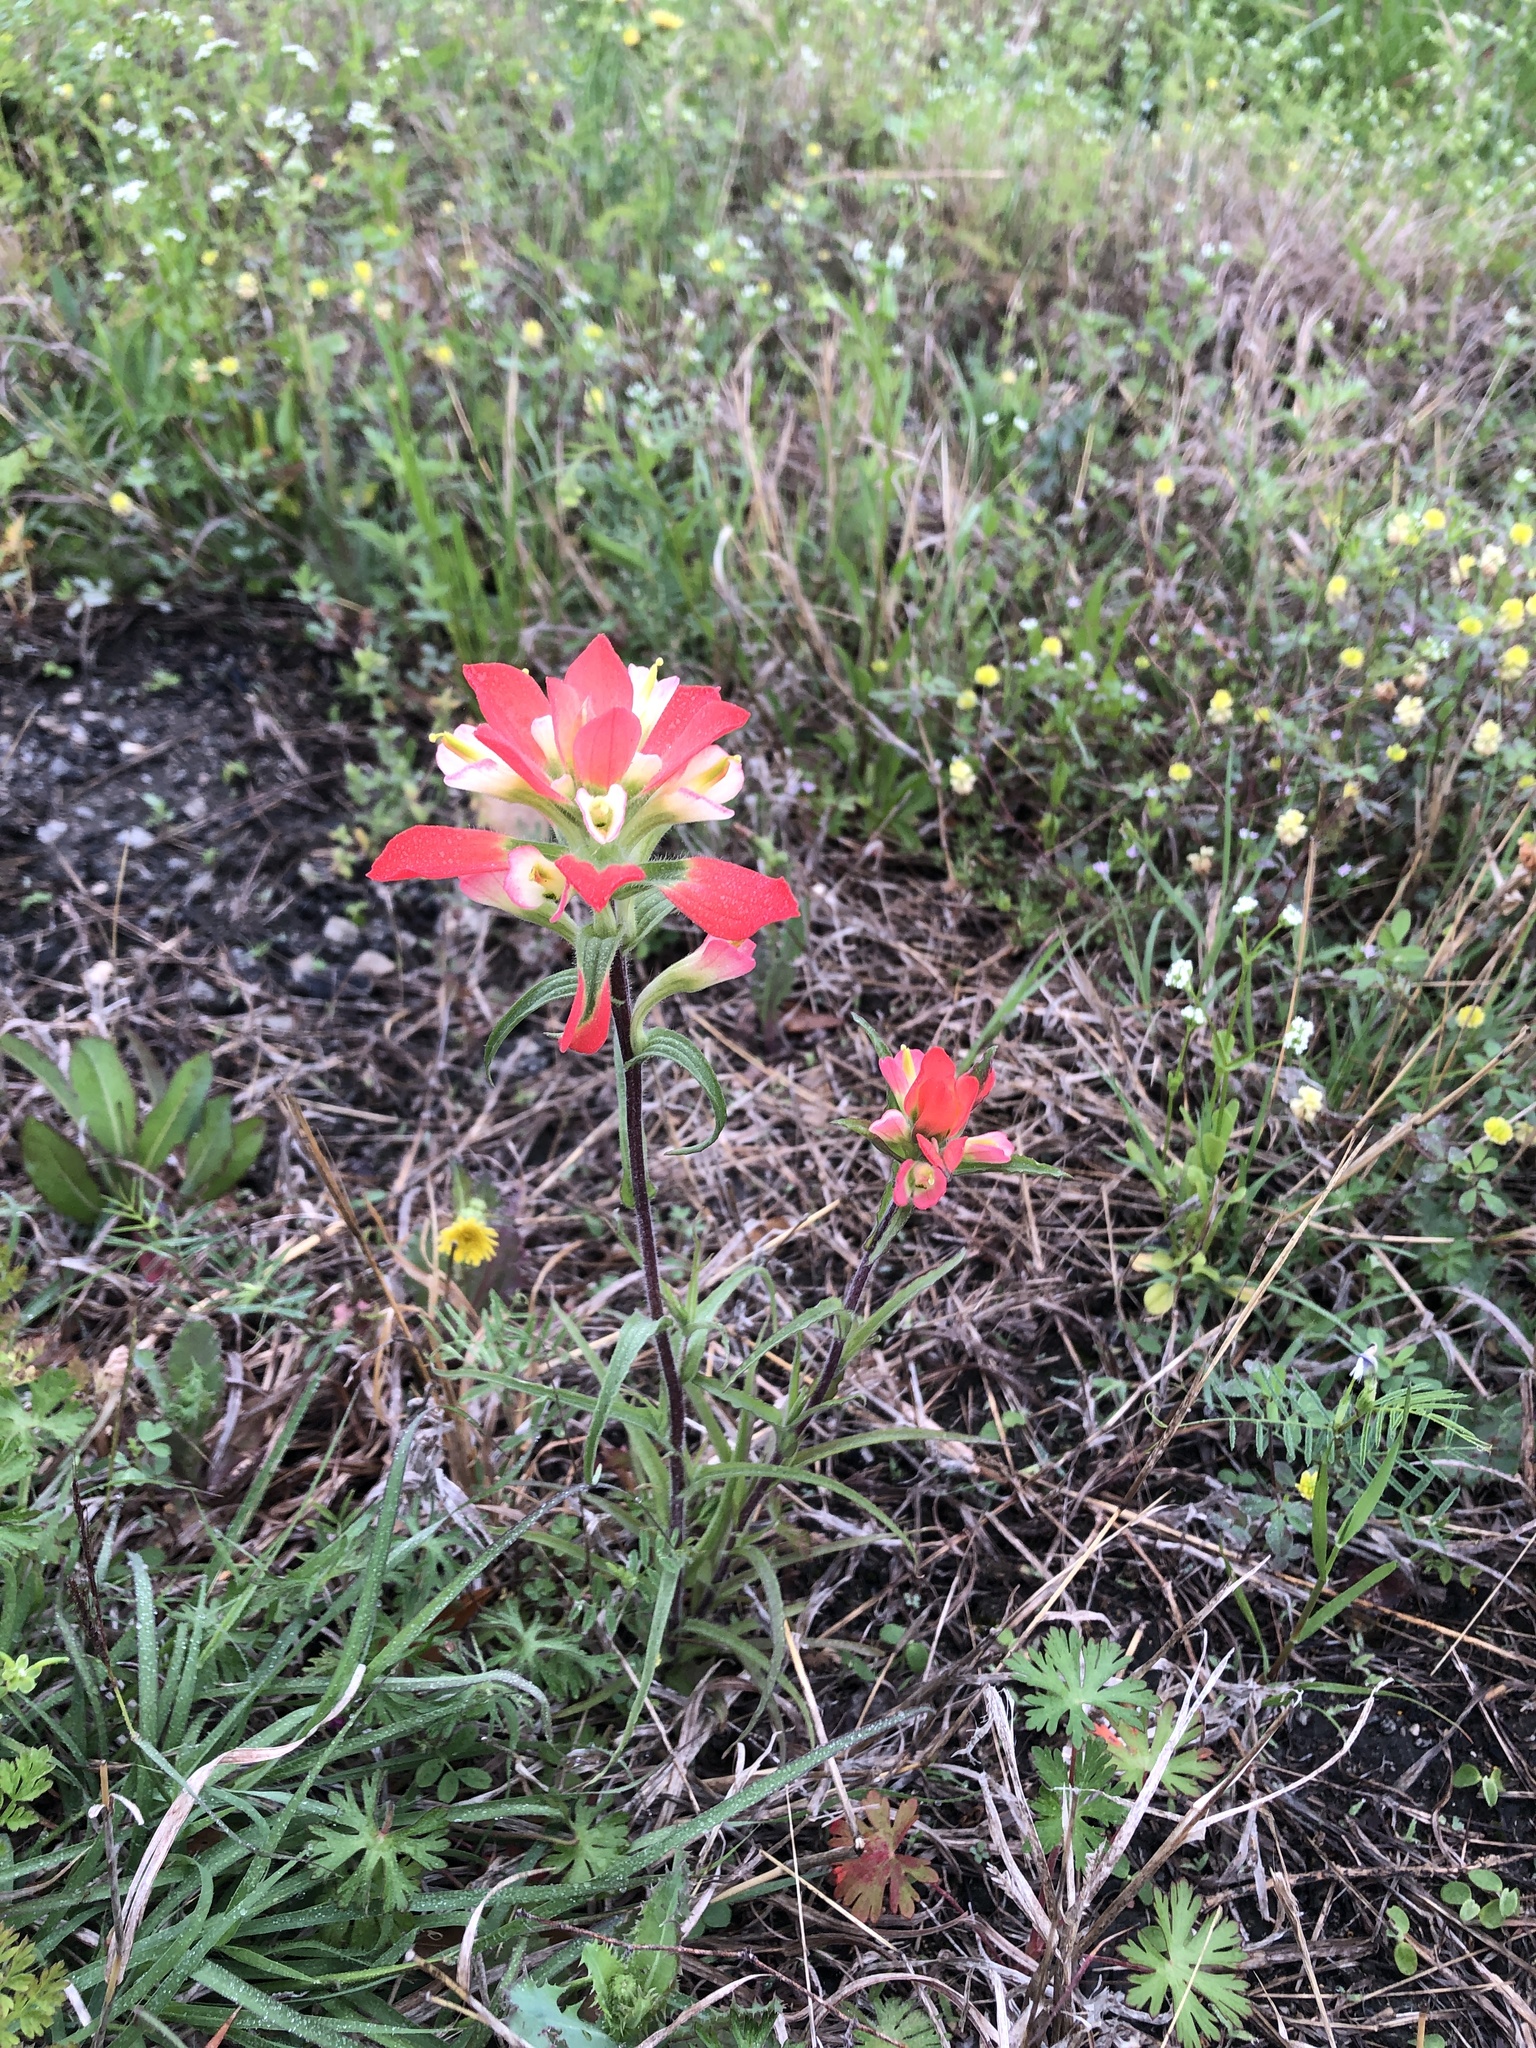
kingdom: Plantae
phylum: Tracheophyta
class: Magnoliopsida
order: Lamiales
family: Orobanchaceae
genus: Castilleja
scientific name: Castilleja indivisa
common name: Texas paintbrush
